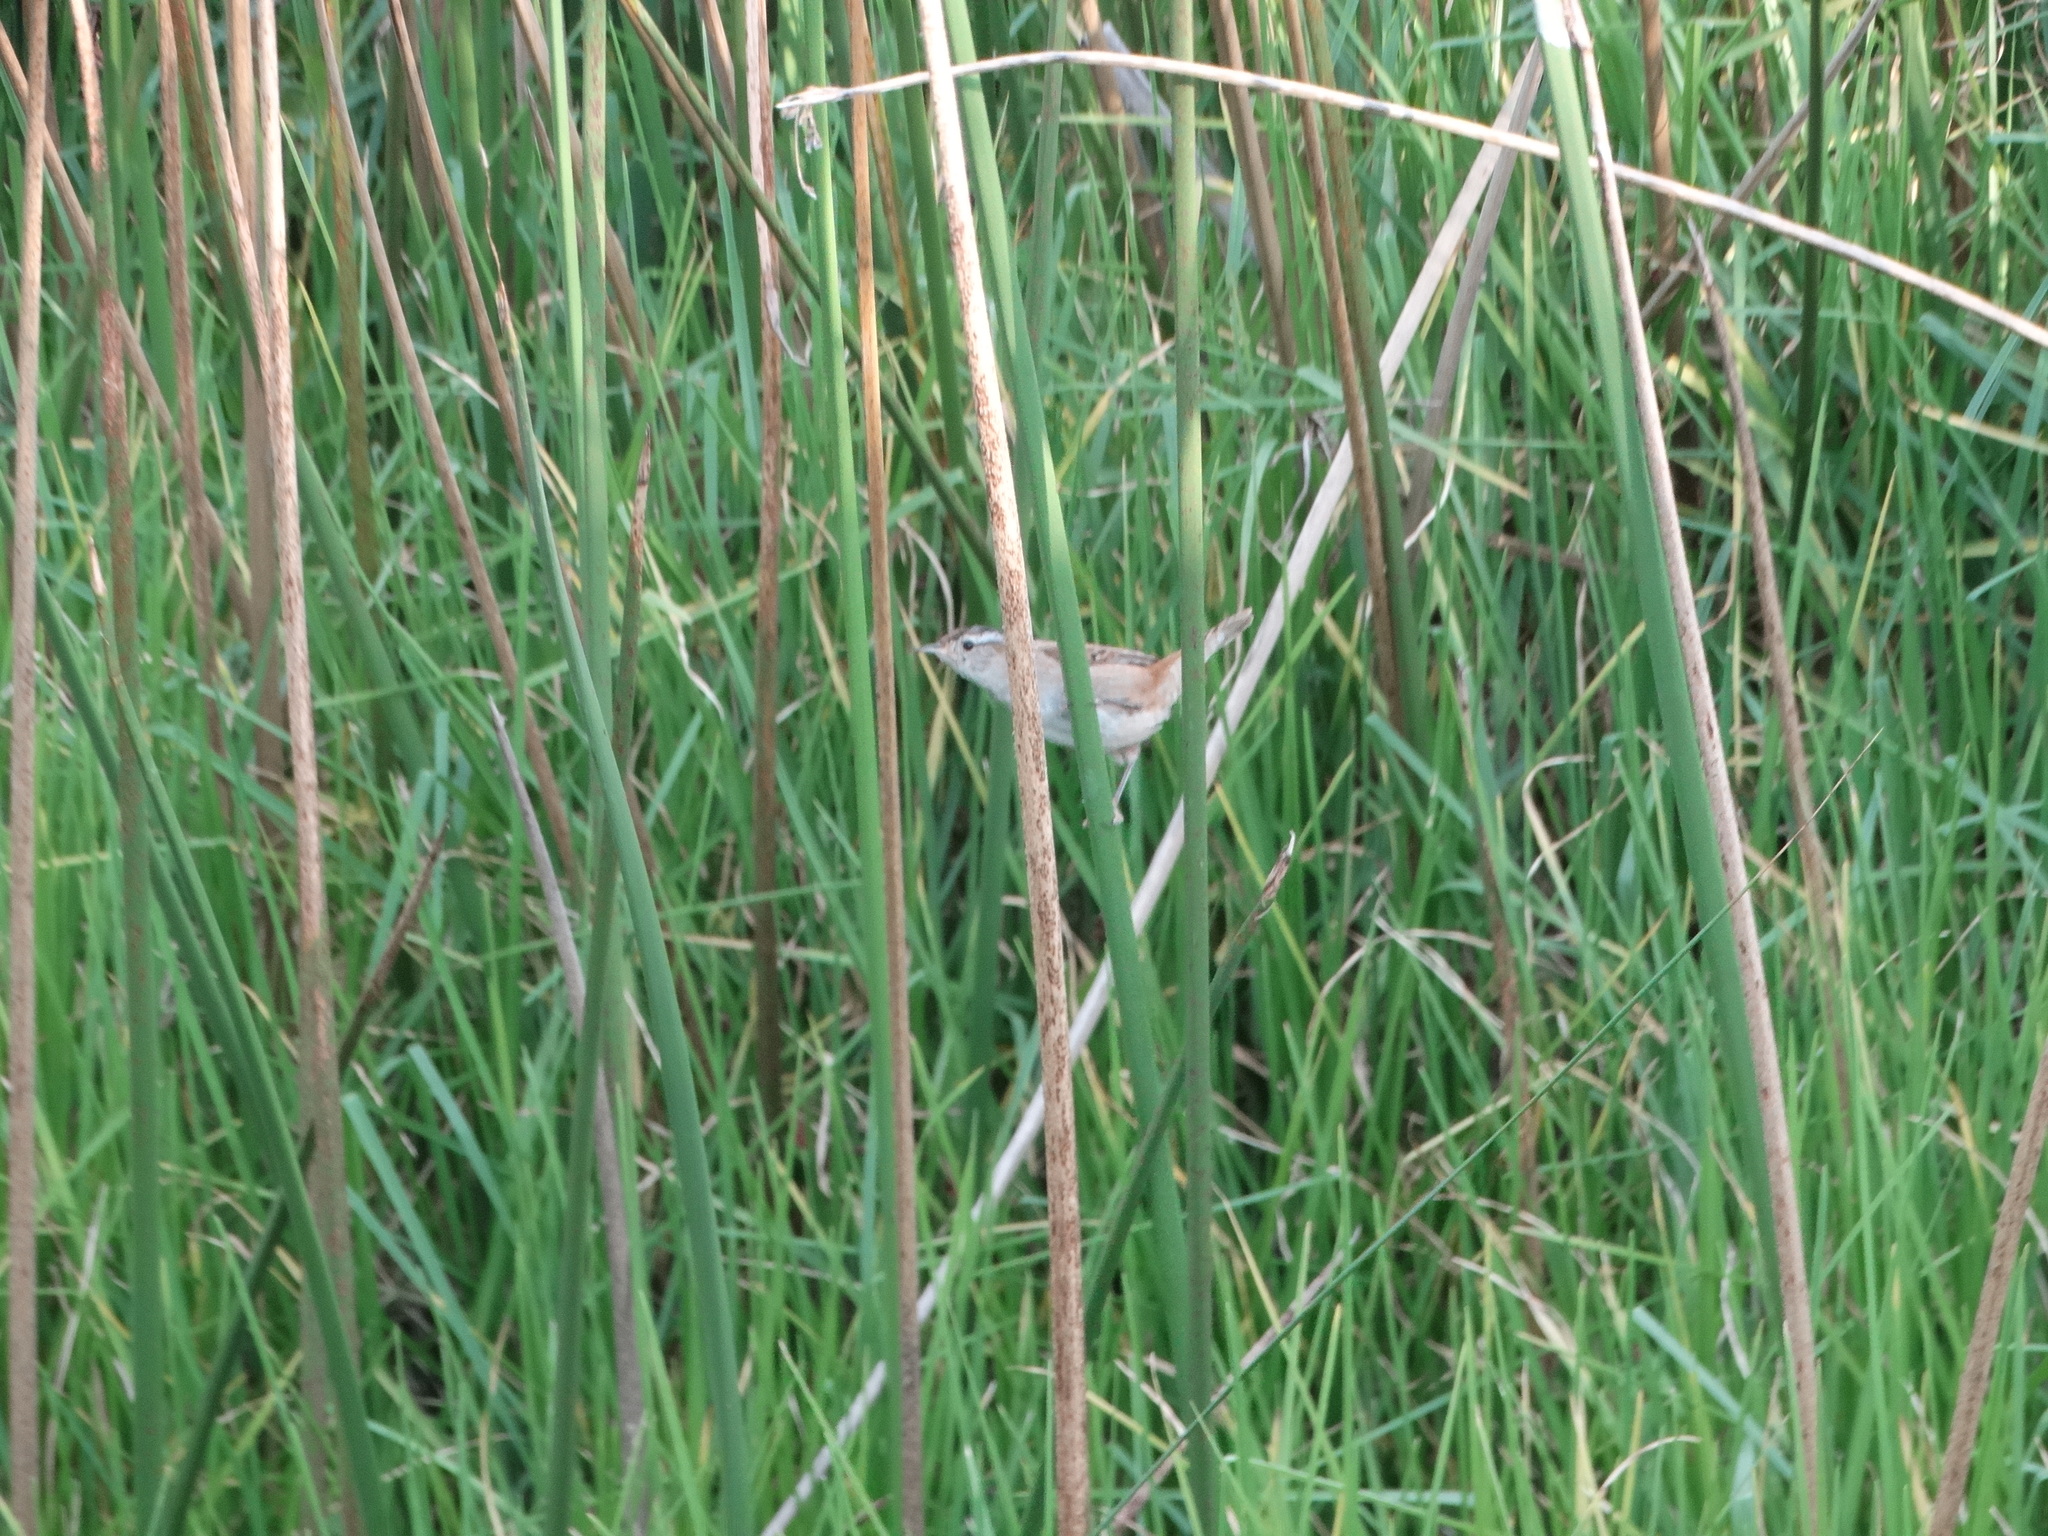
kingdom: Animalia
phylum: Chordata
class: Aves
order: Passeriformes
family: Troglodytidae
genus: Cistothorus
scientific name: Cistothorus palustris
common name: Marsh wren
